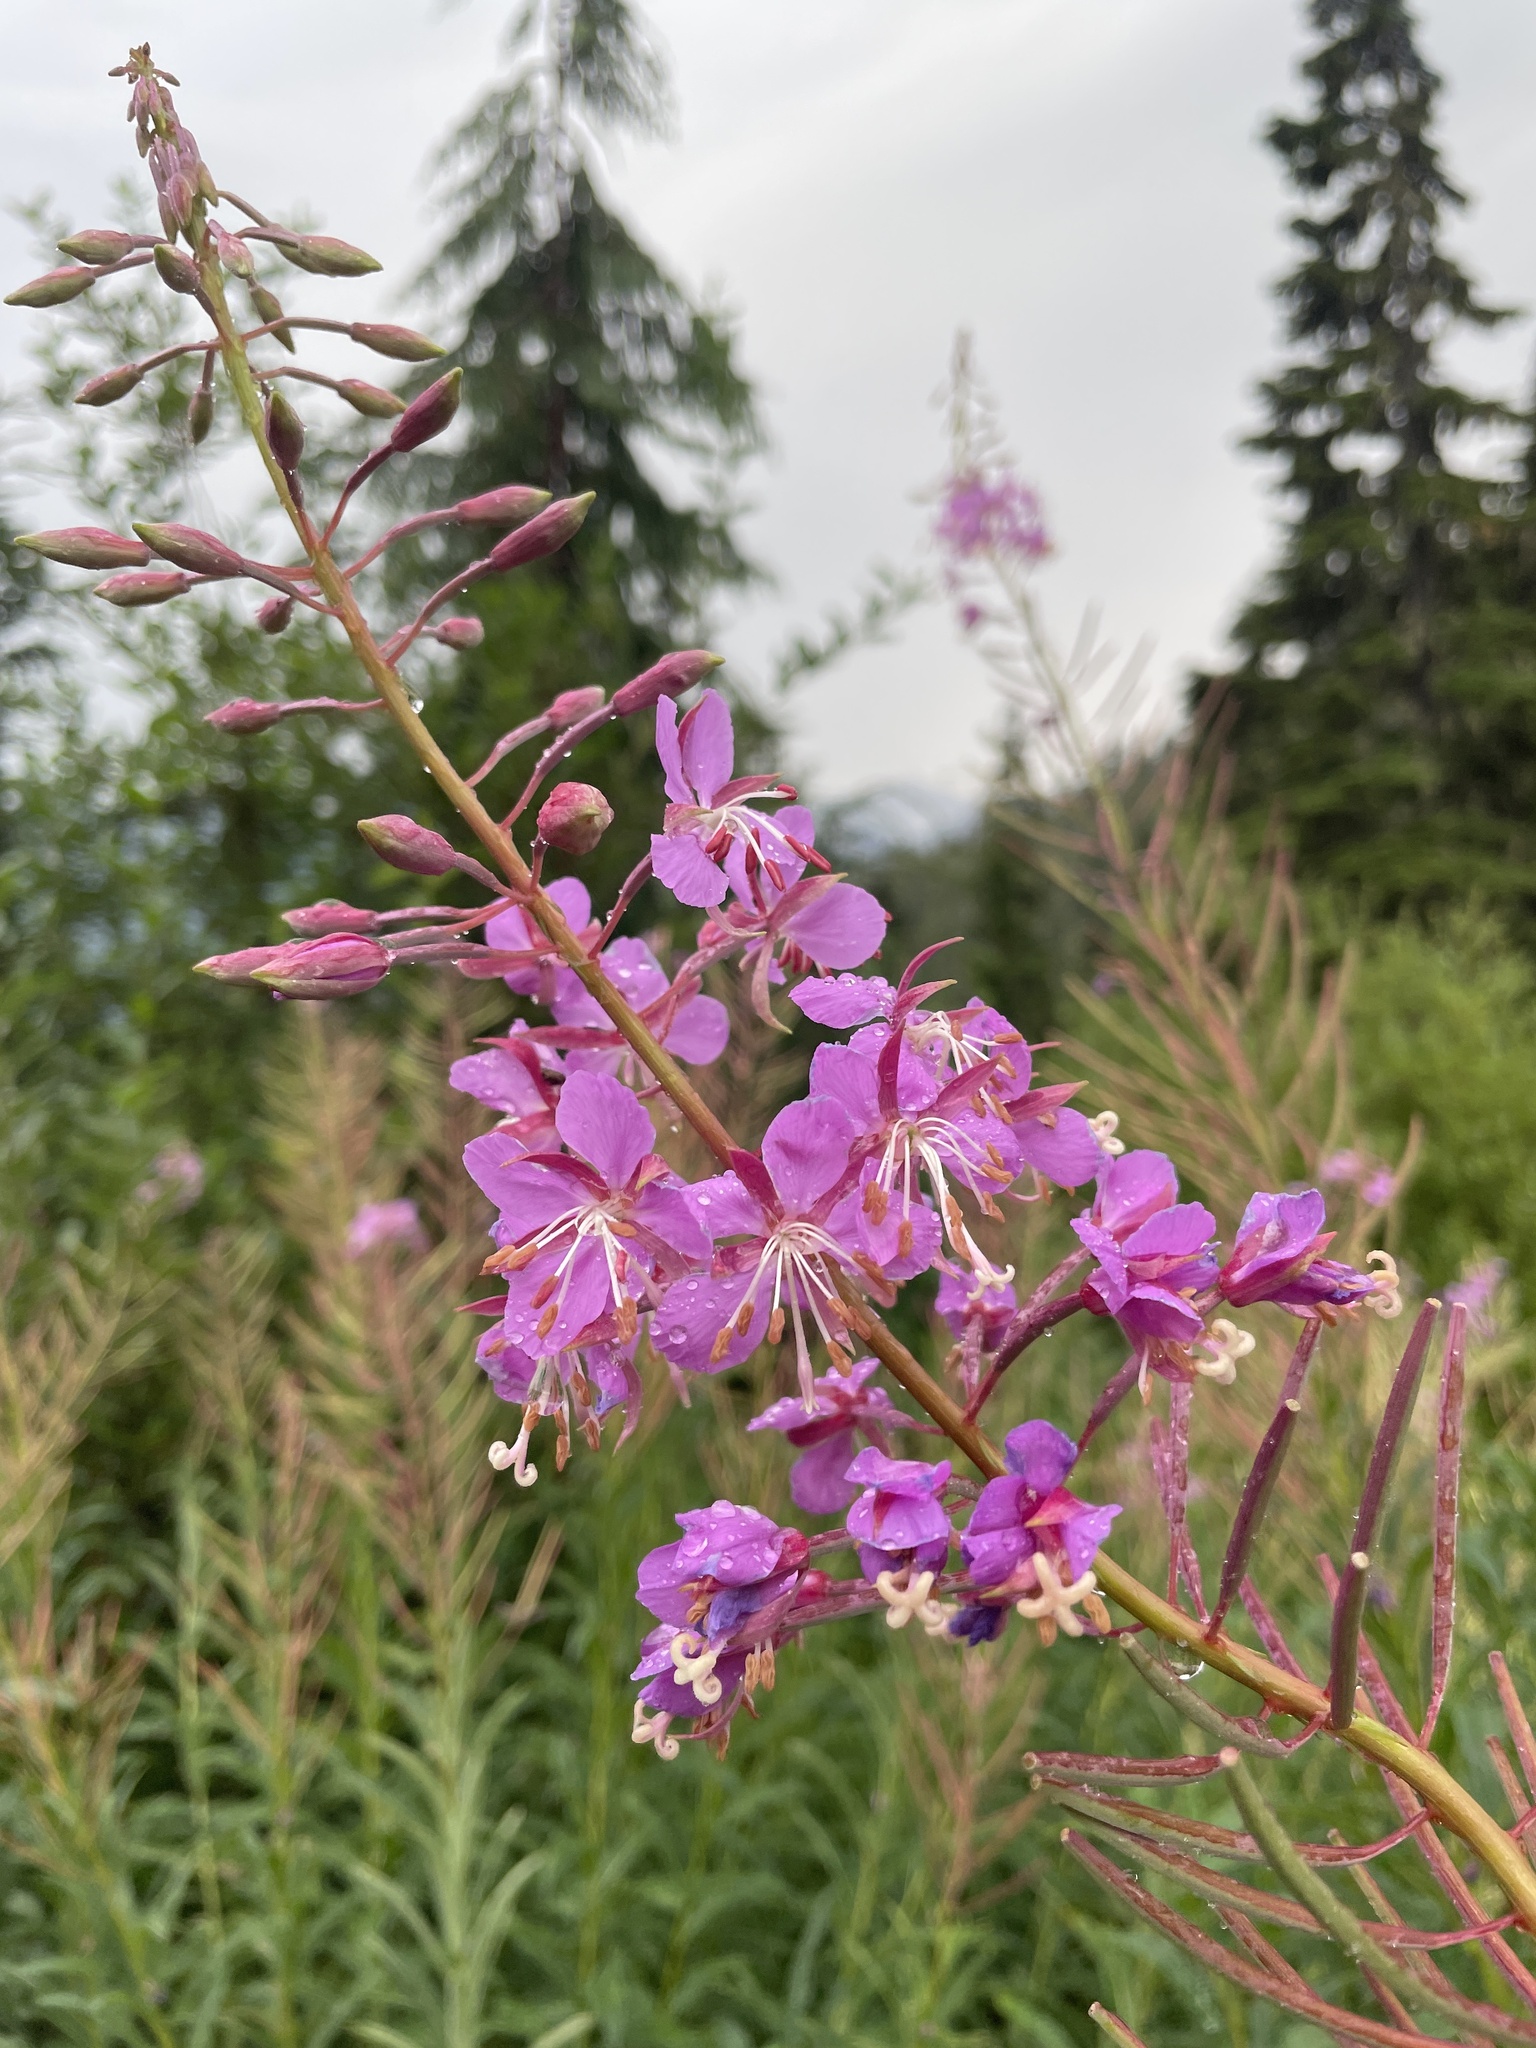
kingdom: Plantae
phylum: Tracheophyta
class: Magnoliopsida
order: Myrtales
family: Onagraceae
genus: Chamaenerion
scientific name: Chamaenerion angustifolium
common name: Fireweed
